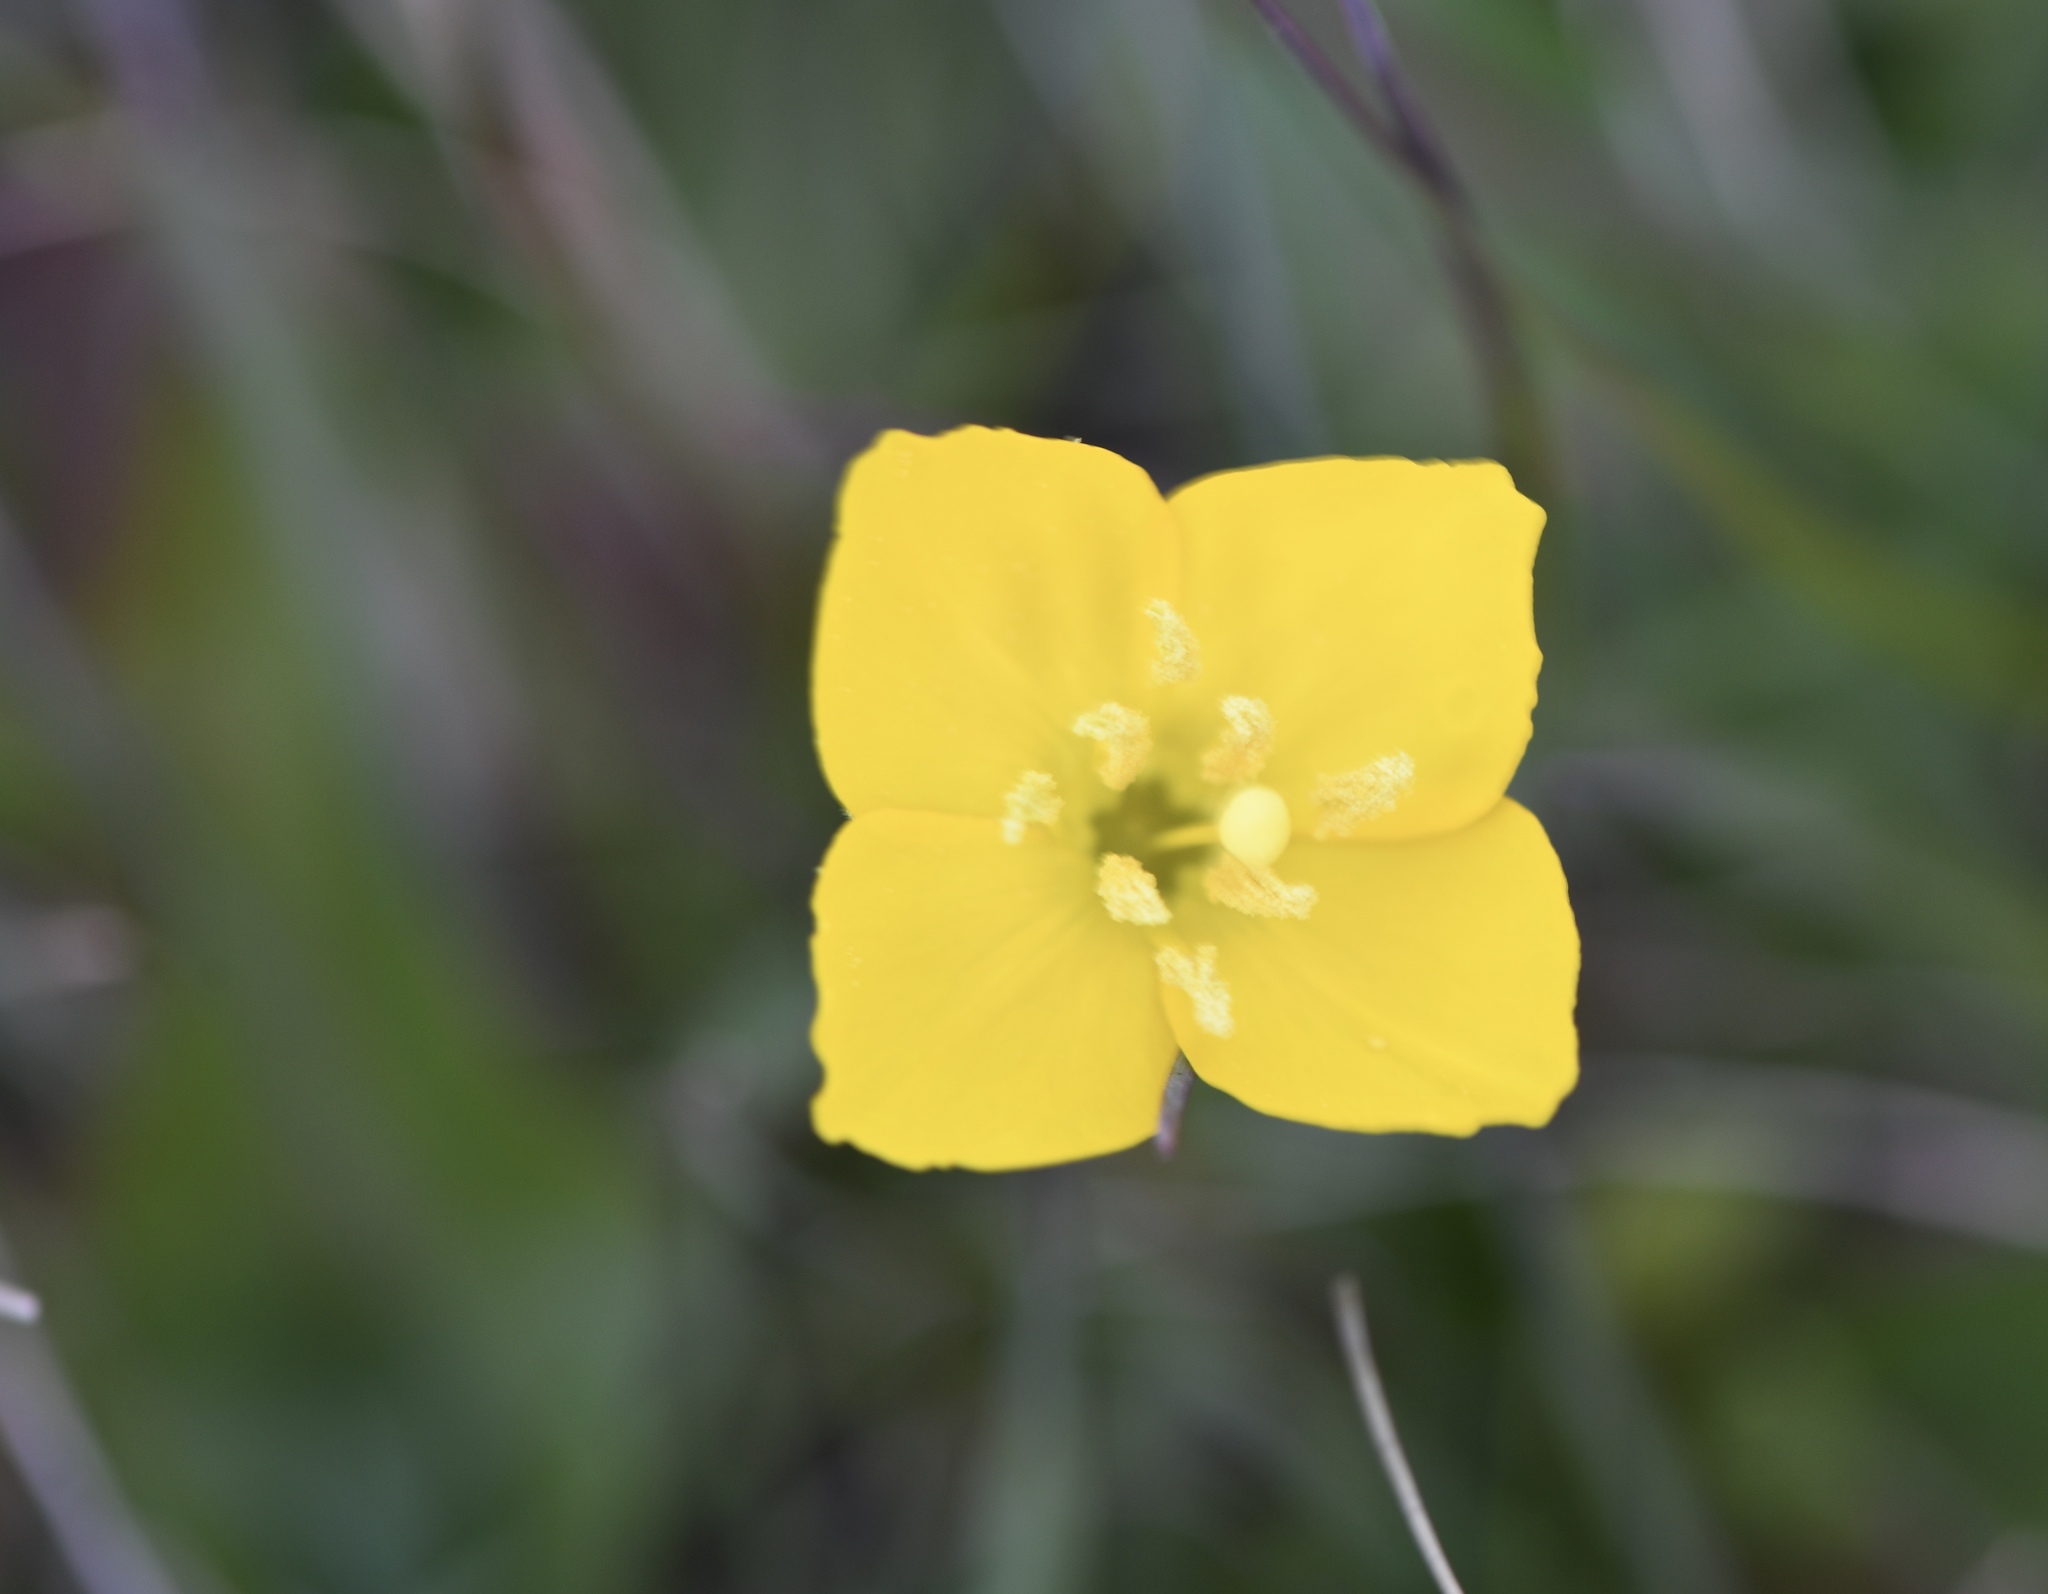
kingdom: Plantae
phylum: Tracheophyta
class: Magnoliopsida
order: Myrtales
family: Onagraceae
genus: Taraxia
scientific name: Taraxia ovata
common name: Goldeneggs
